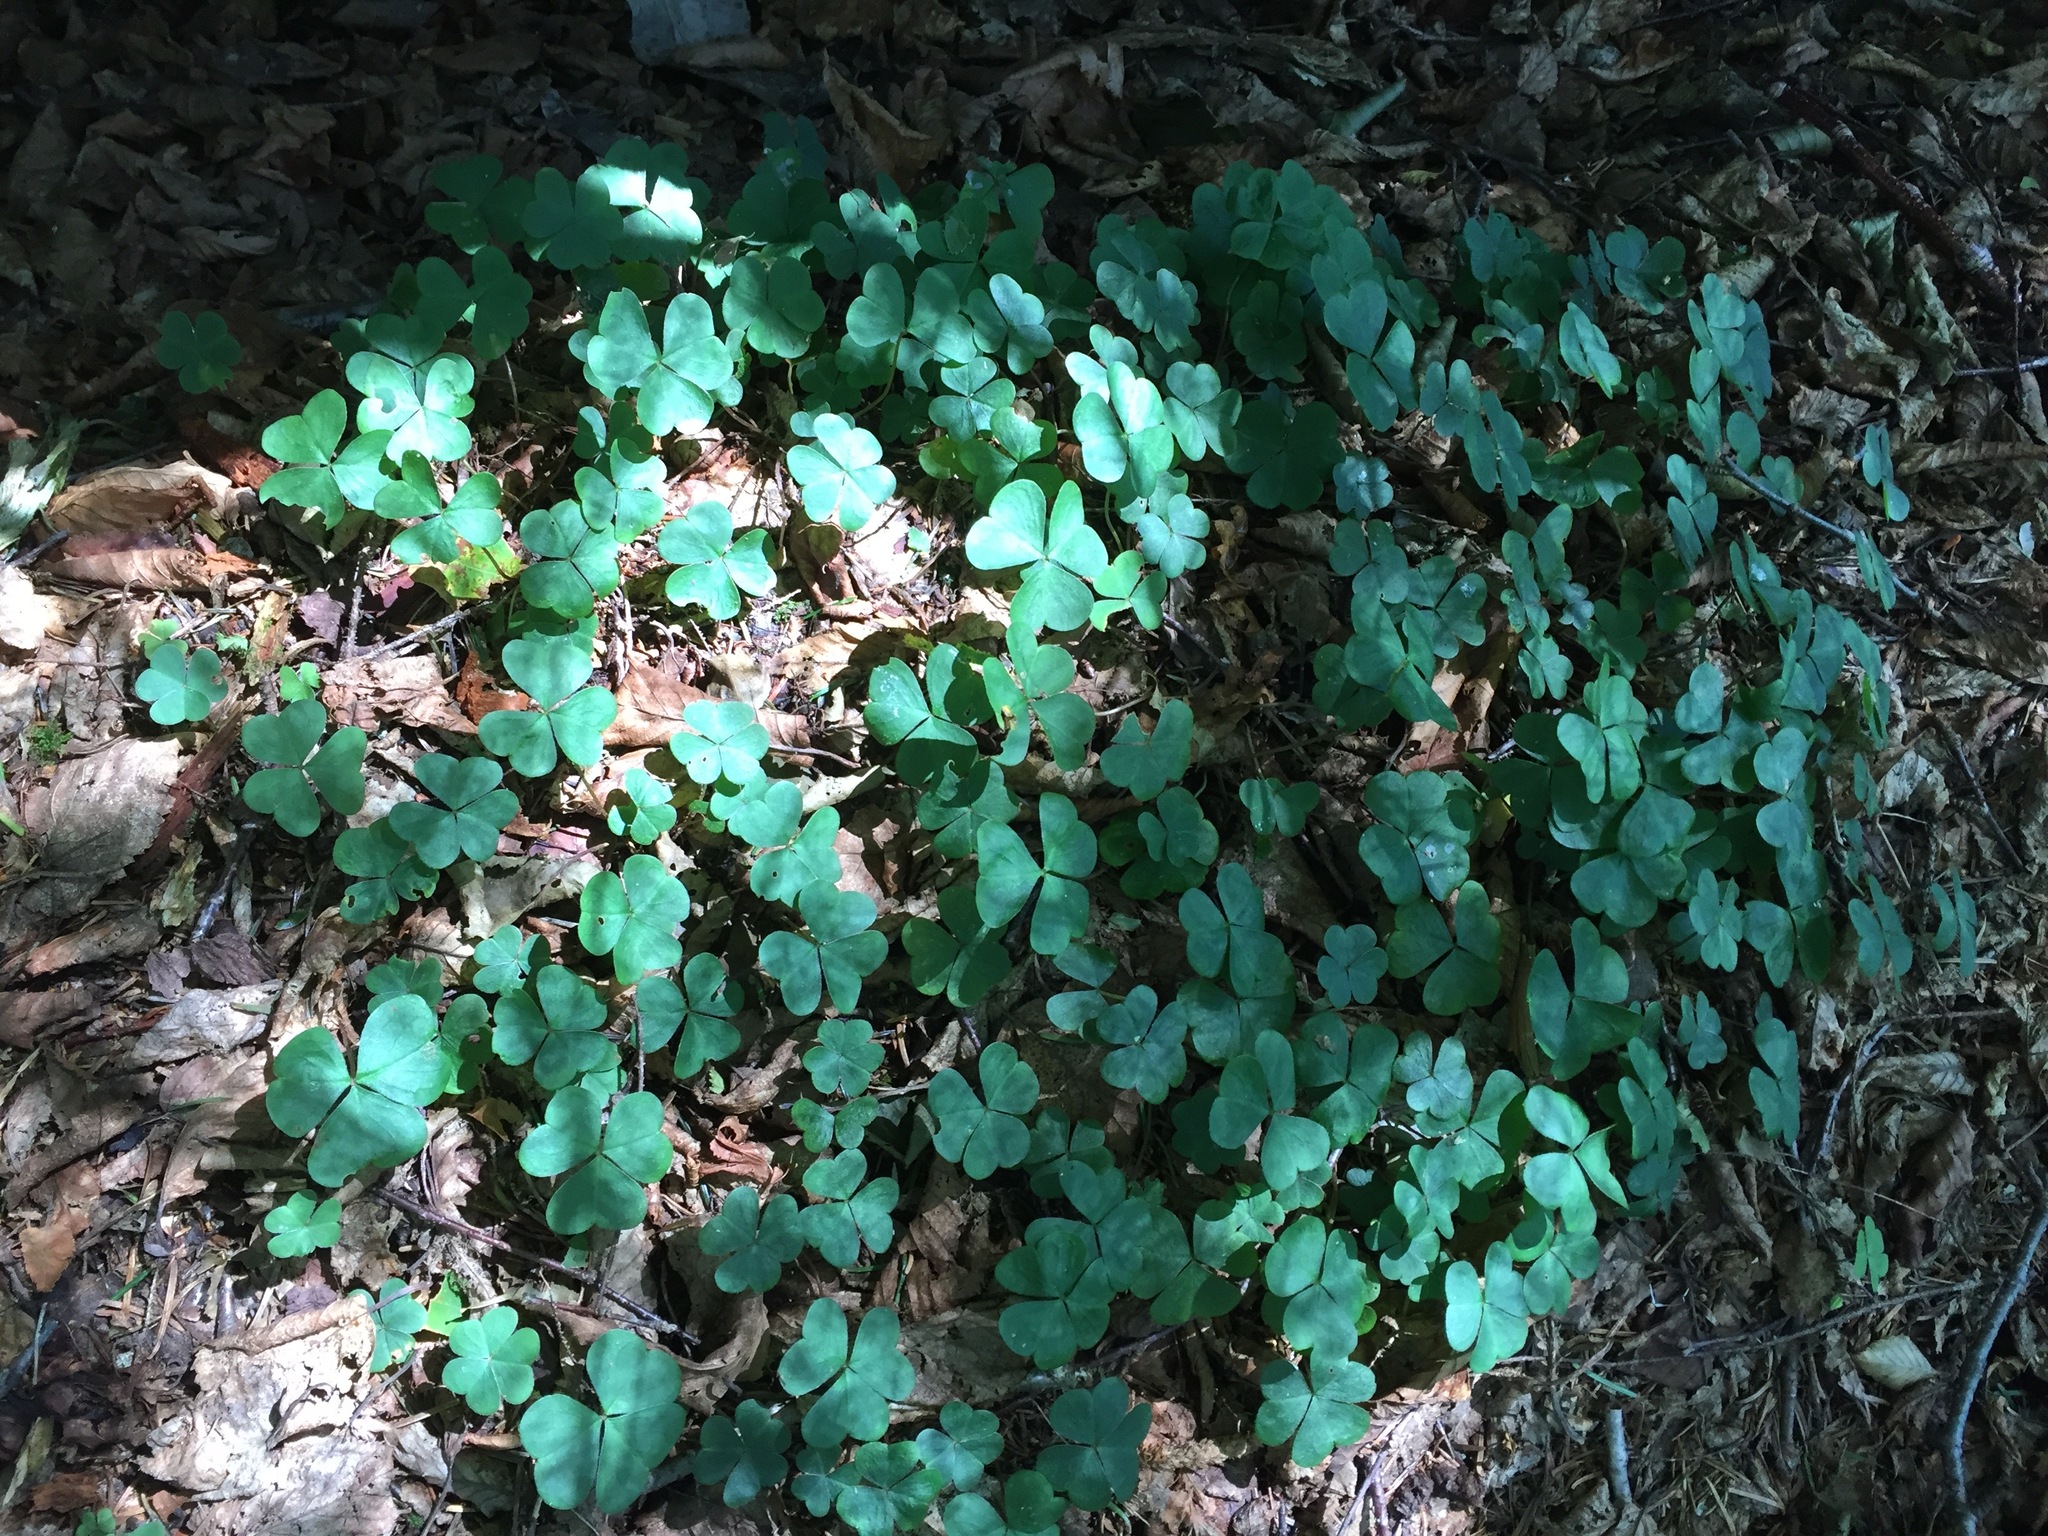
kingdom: Plantae
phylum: Tracheophyta
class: Magnoliopsida
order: Oxalidales
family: Oxalidaceae
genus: Oxalis
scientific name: Oxalis montana
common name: American wood-sorrel
